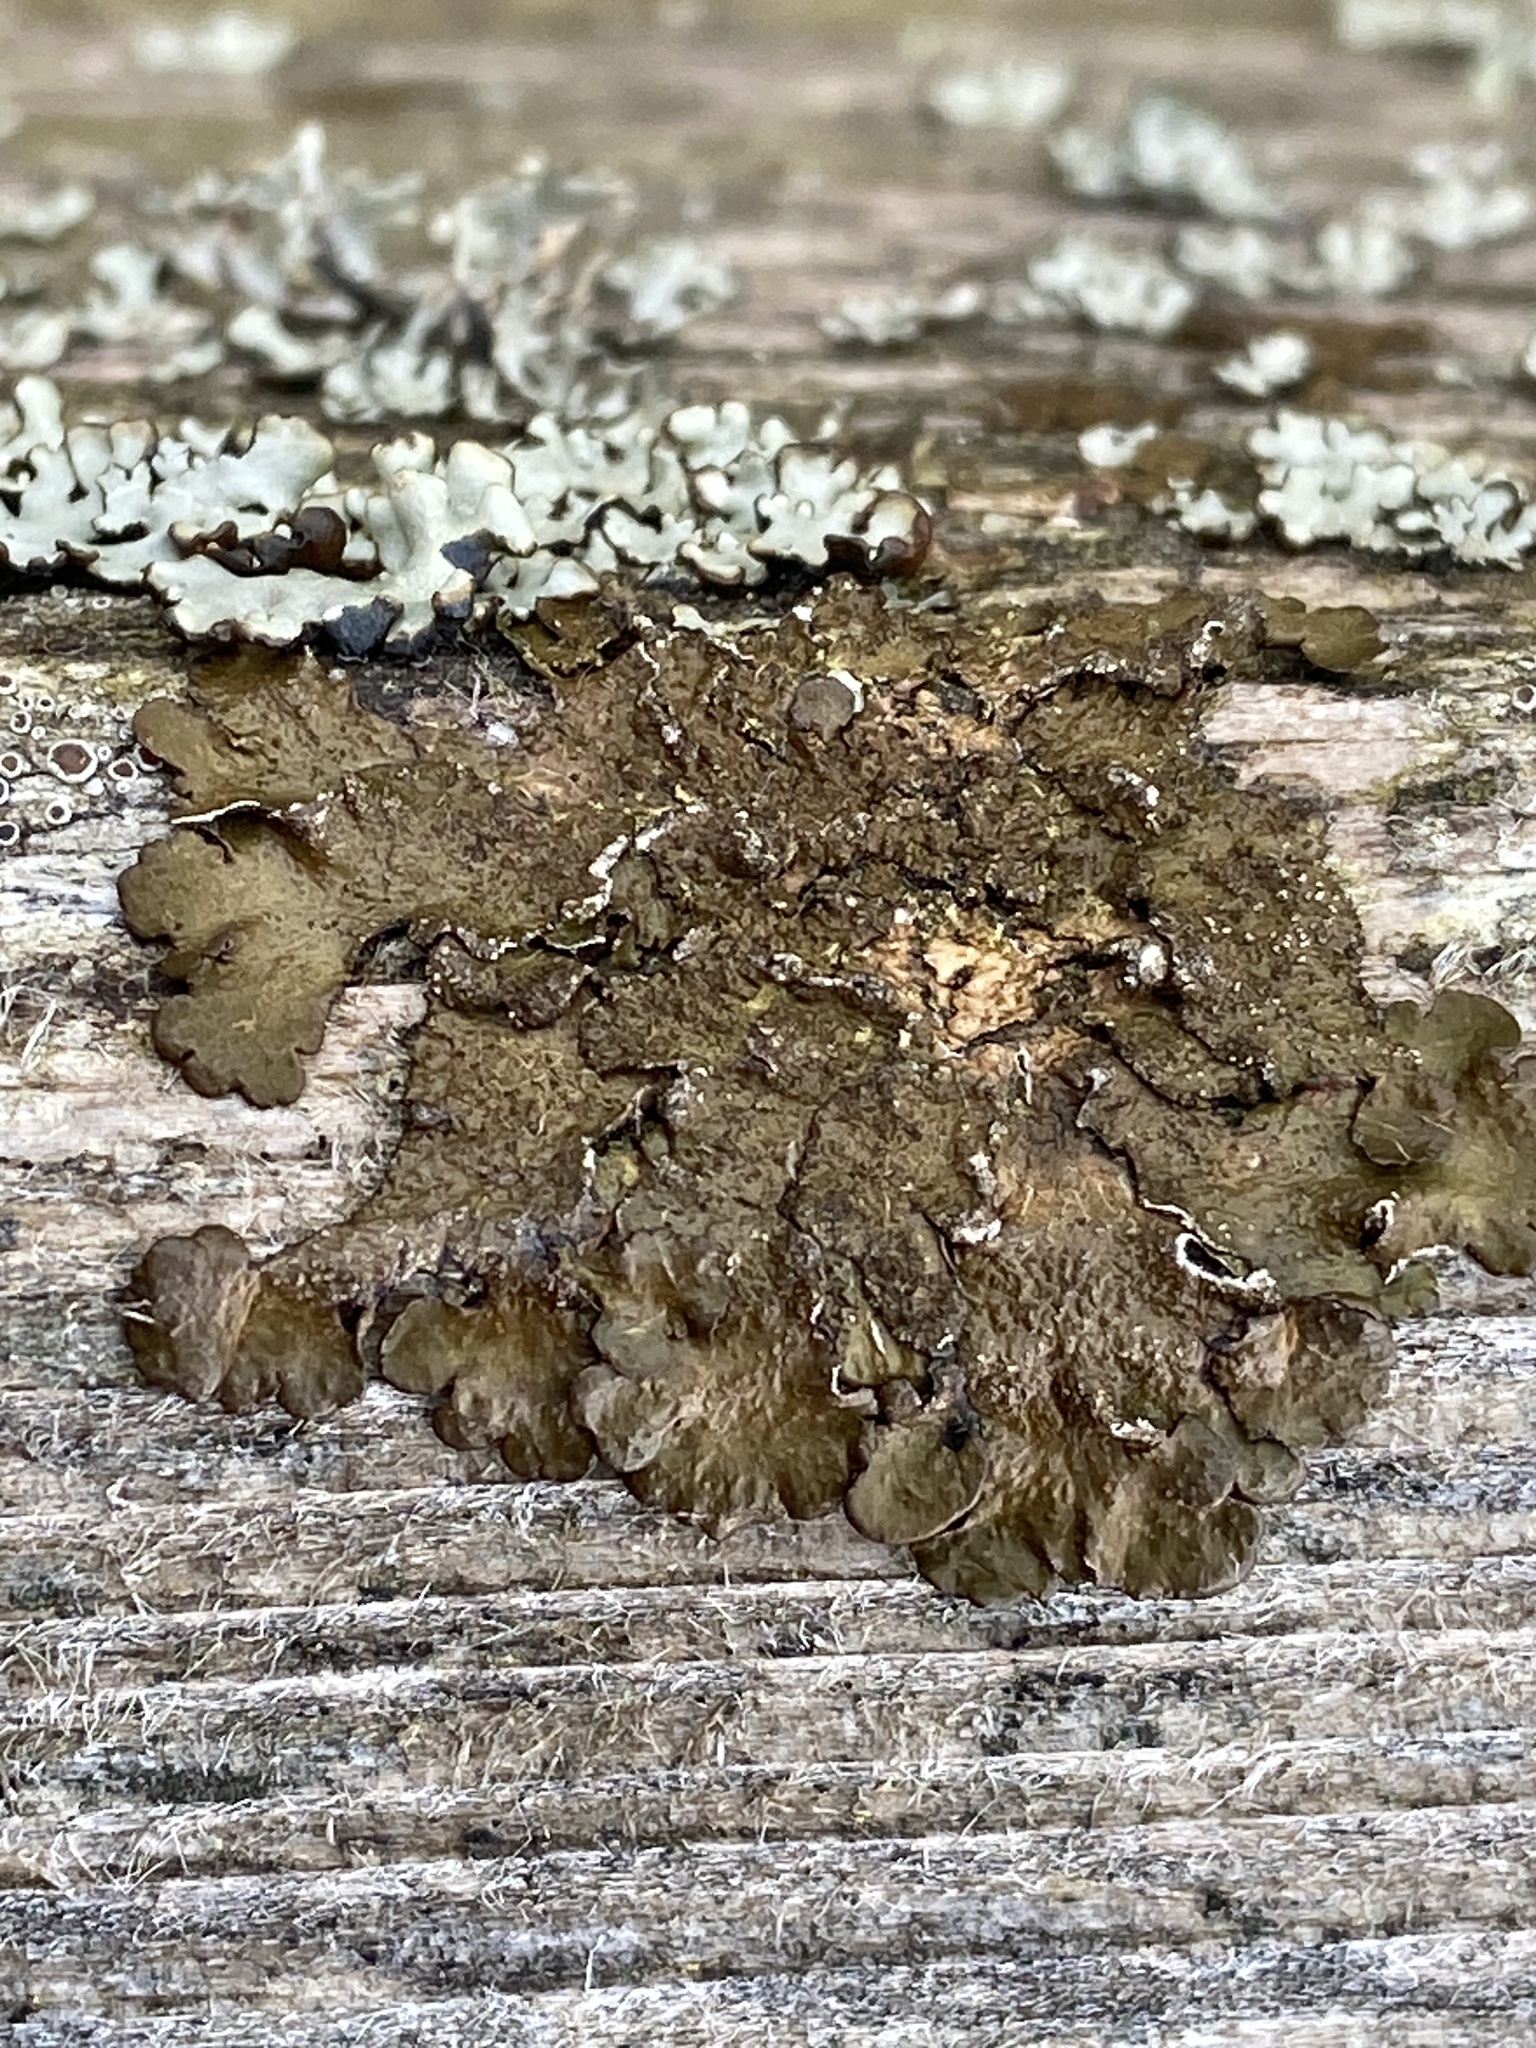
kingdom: Fungi
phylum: Ascomycota
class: Lecanoromycetes
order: Lecanorales
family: Parmeliaceae
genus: Melanelixia
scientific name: Melanelixia subaurifera
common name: Abraded camouflage lichen
